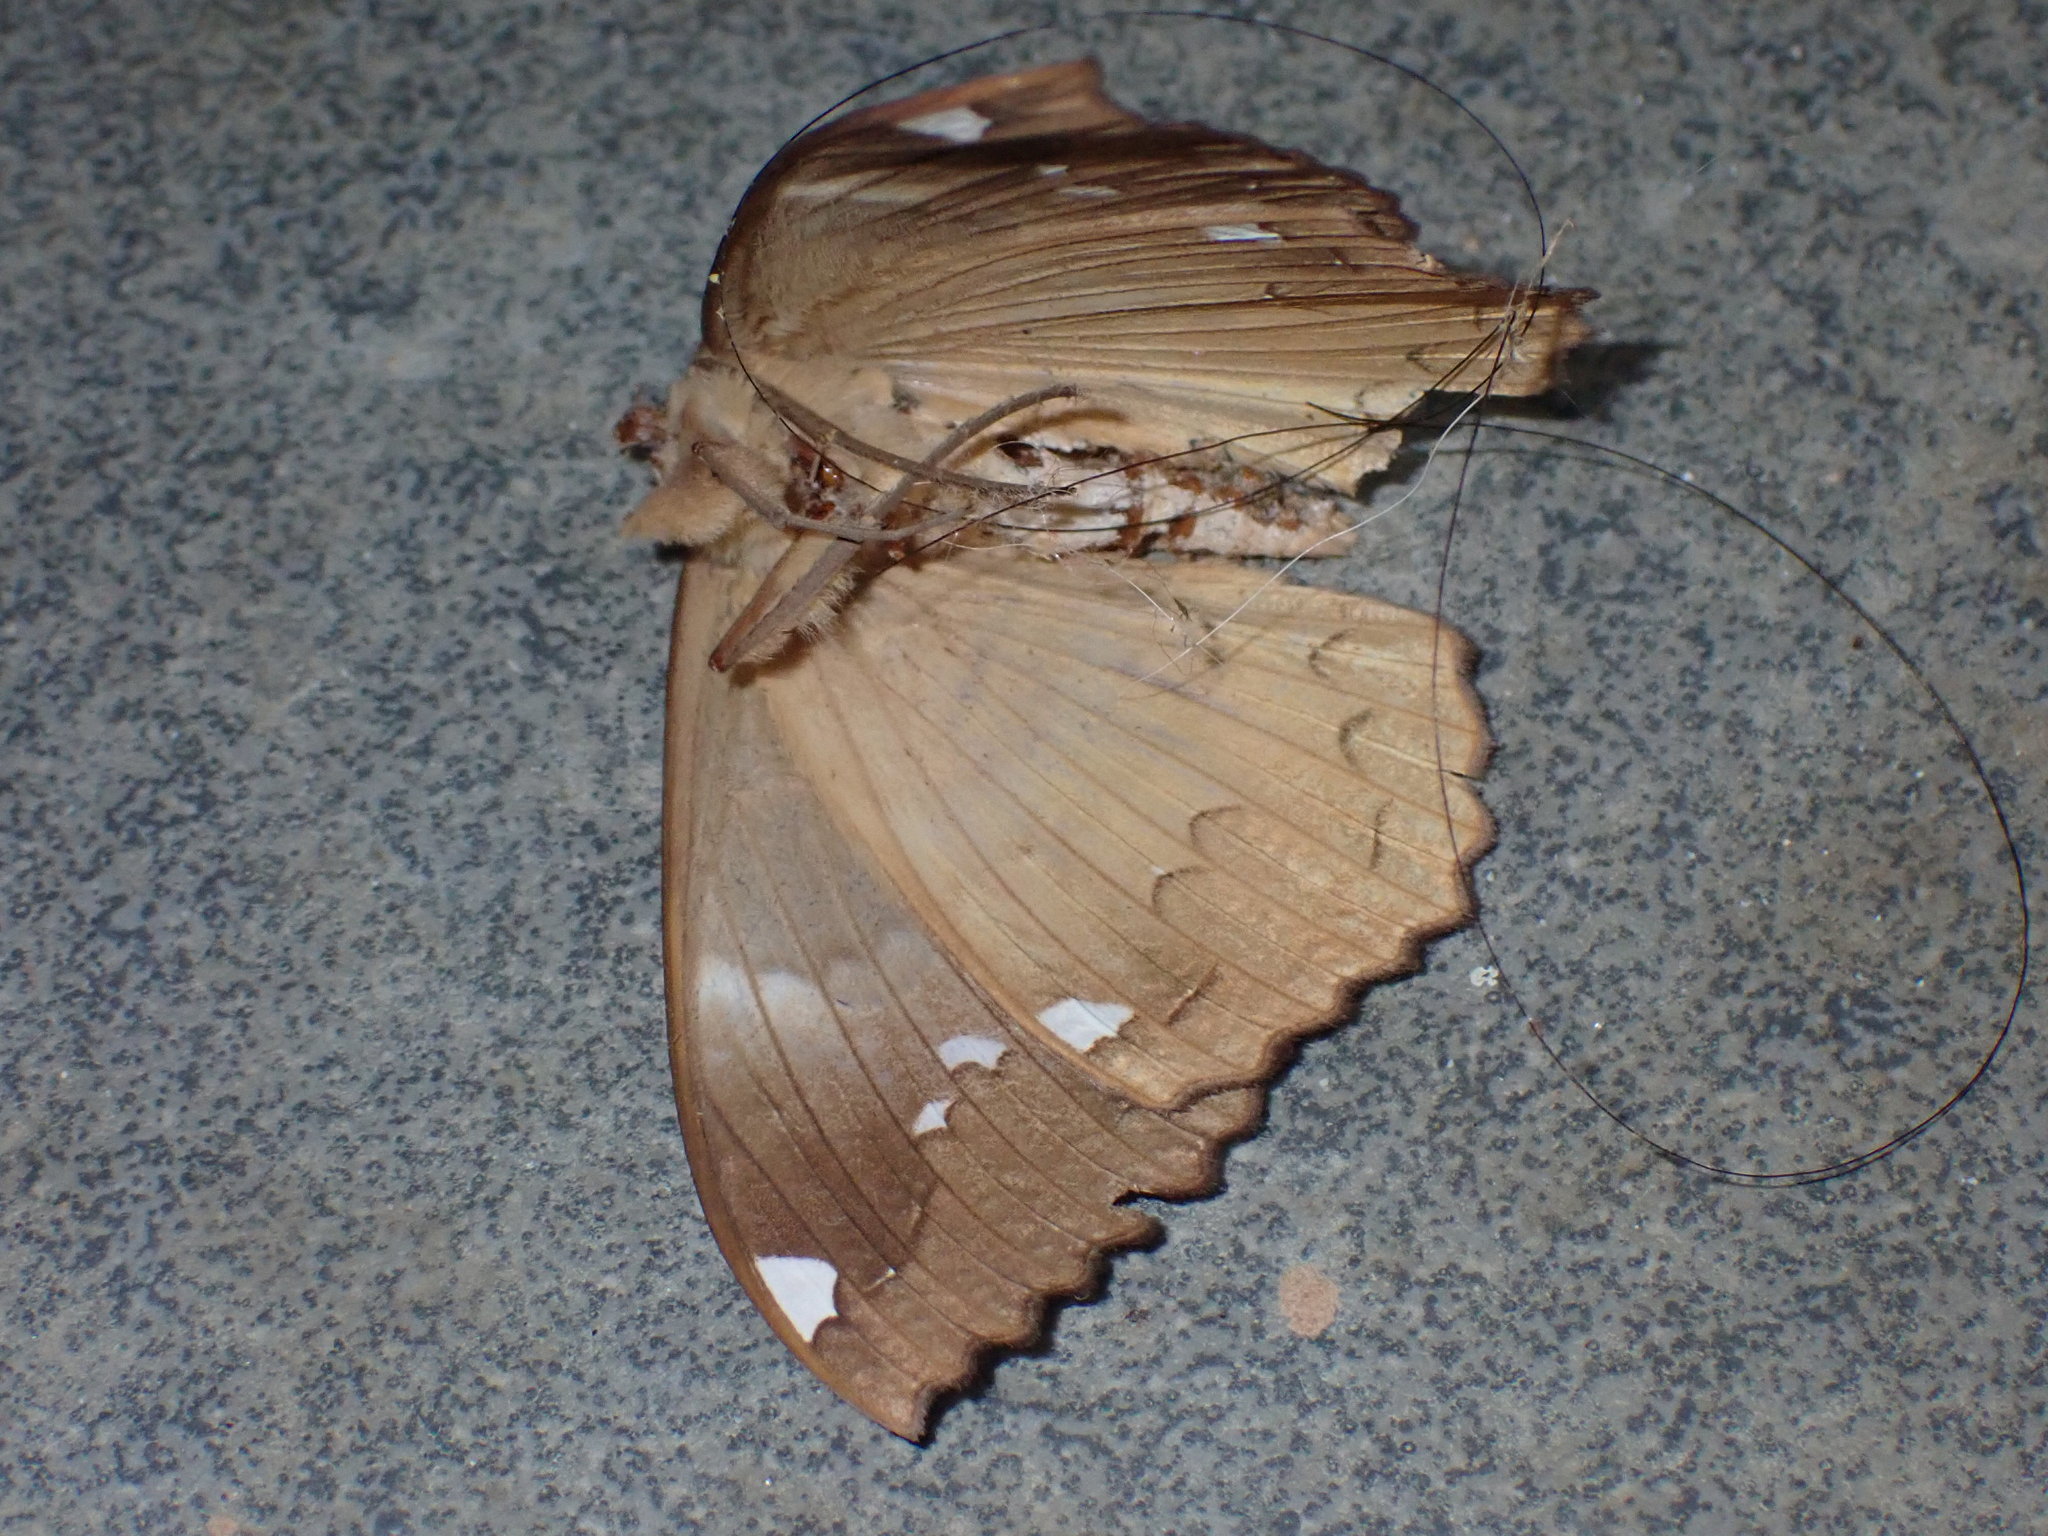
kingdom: Animalia
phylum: Arthropoda
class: Insecta
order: Lepidoptera
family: Erebidae
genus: Erebus
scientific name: Erebus ephesperis
